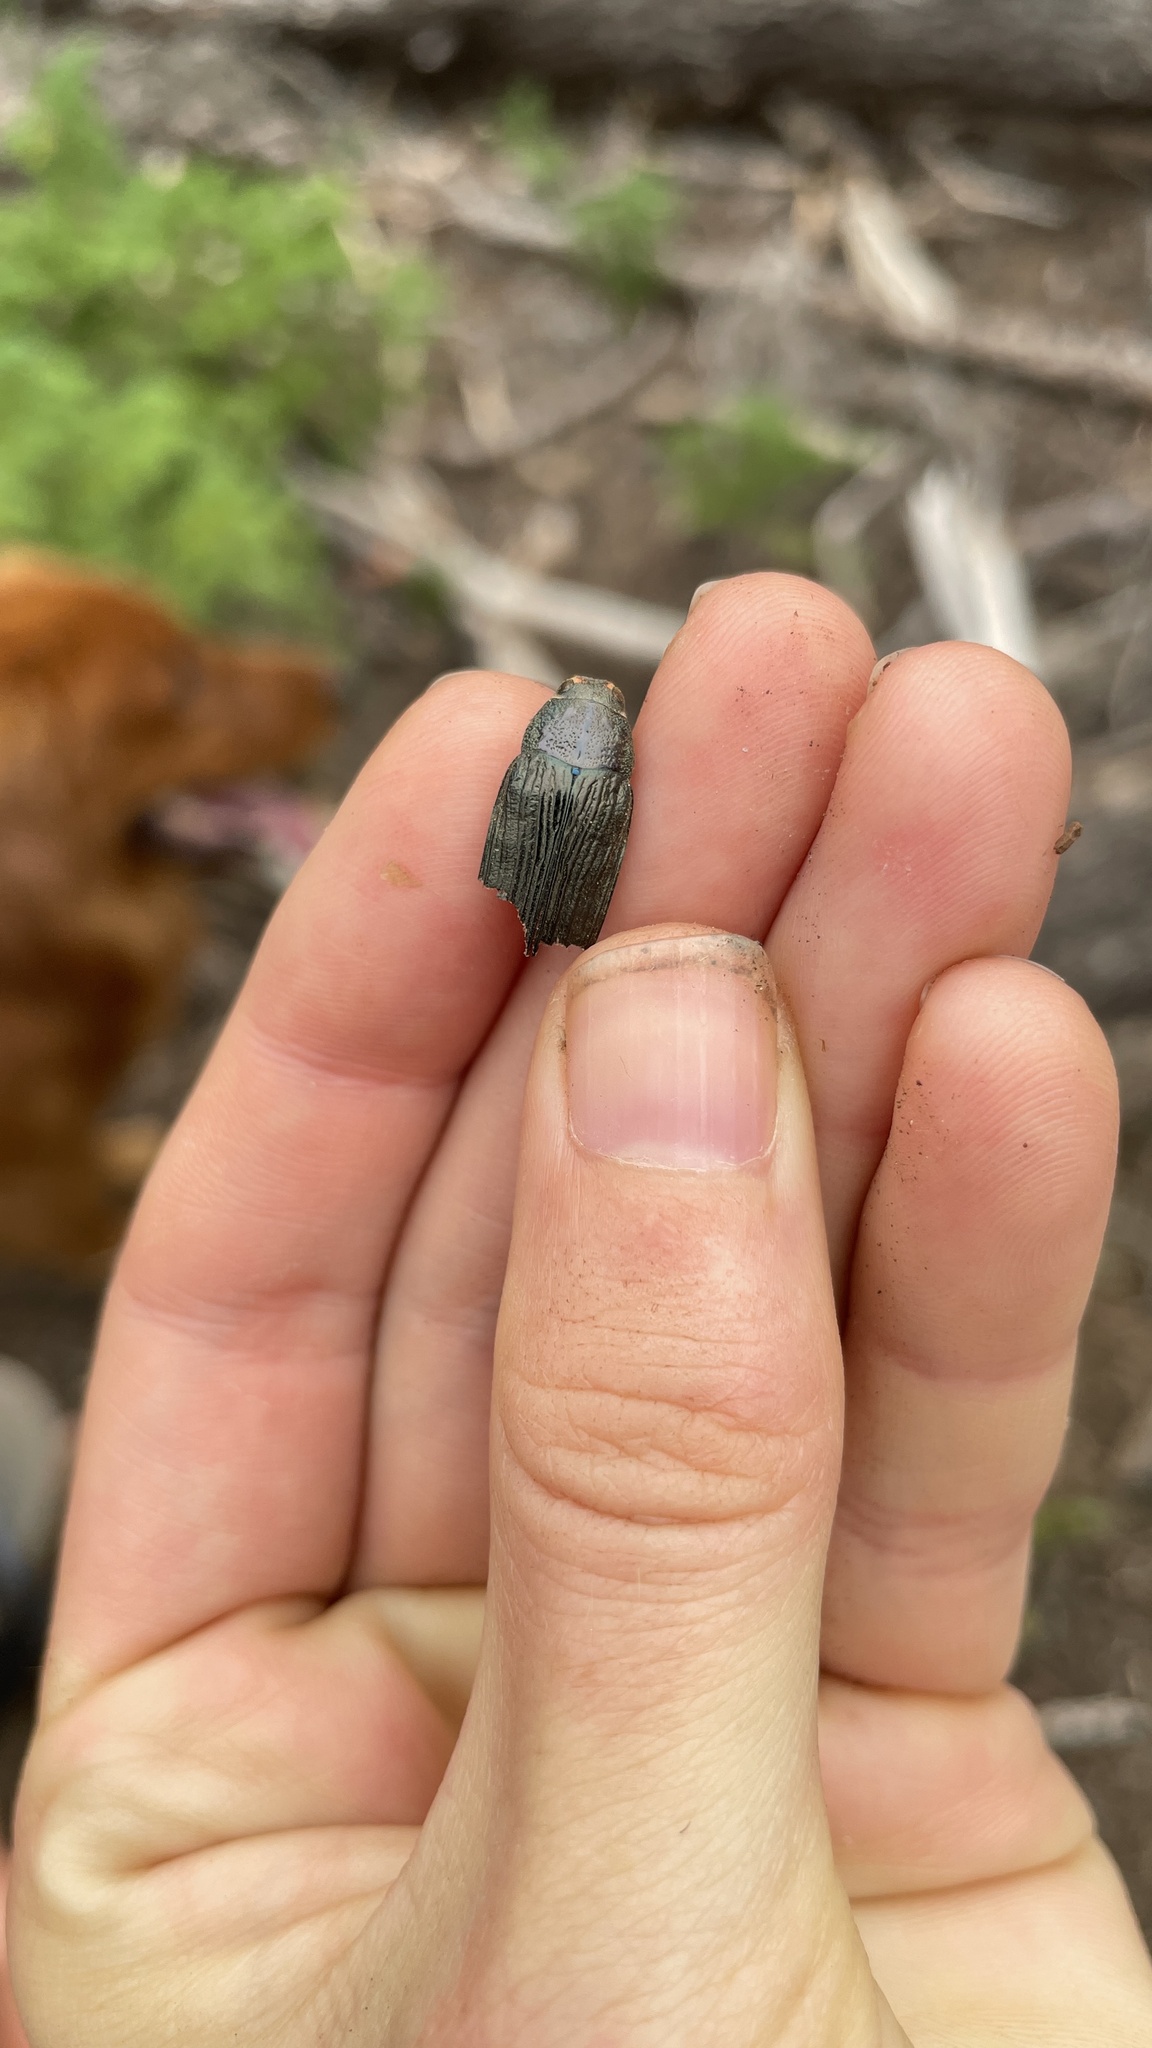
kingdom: Animalia
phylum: Arthropoda
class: Insecta
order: Coleoptera
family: Buprestidae
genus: Buprestis
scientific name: Buprestis lyrata
